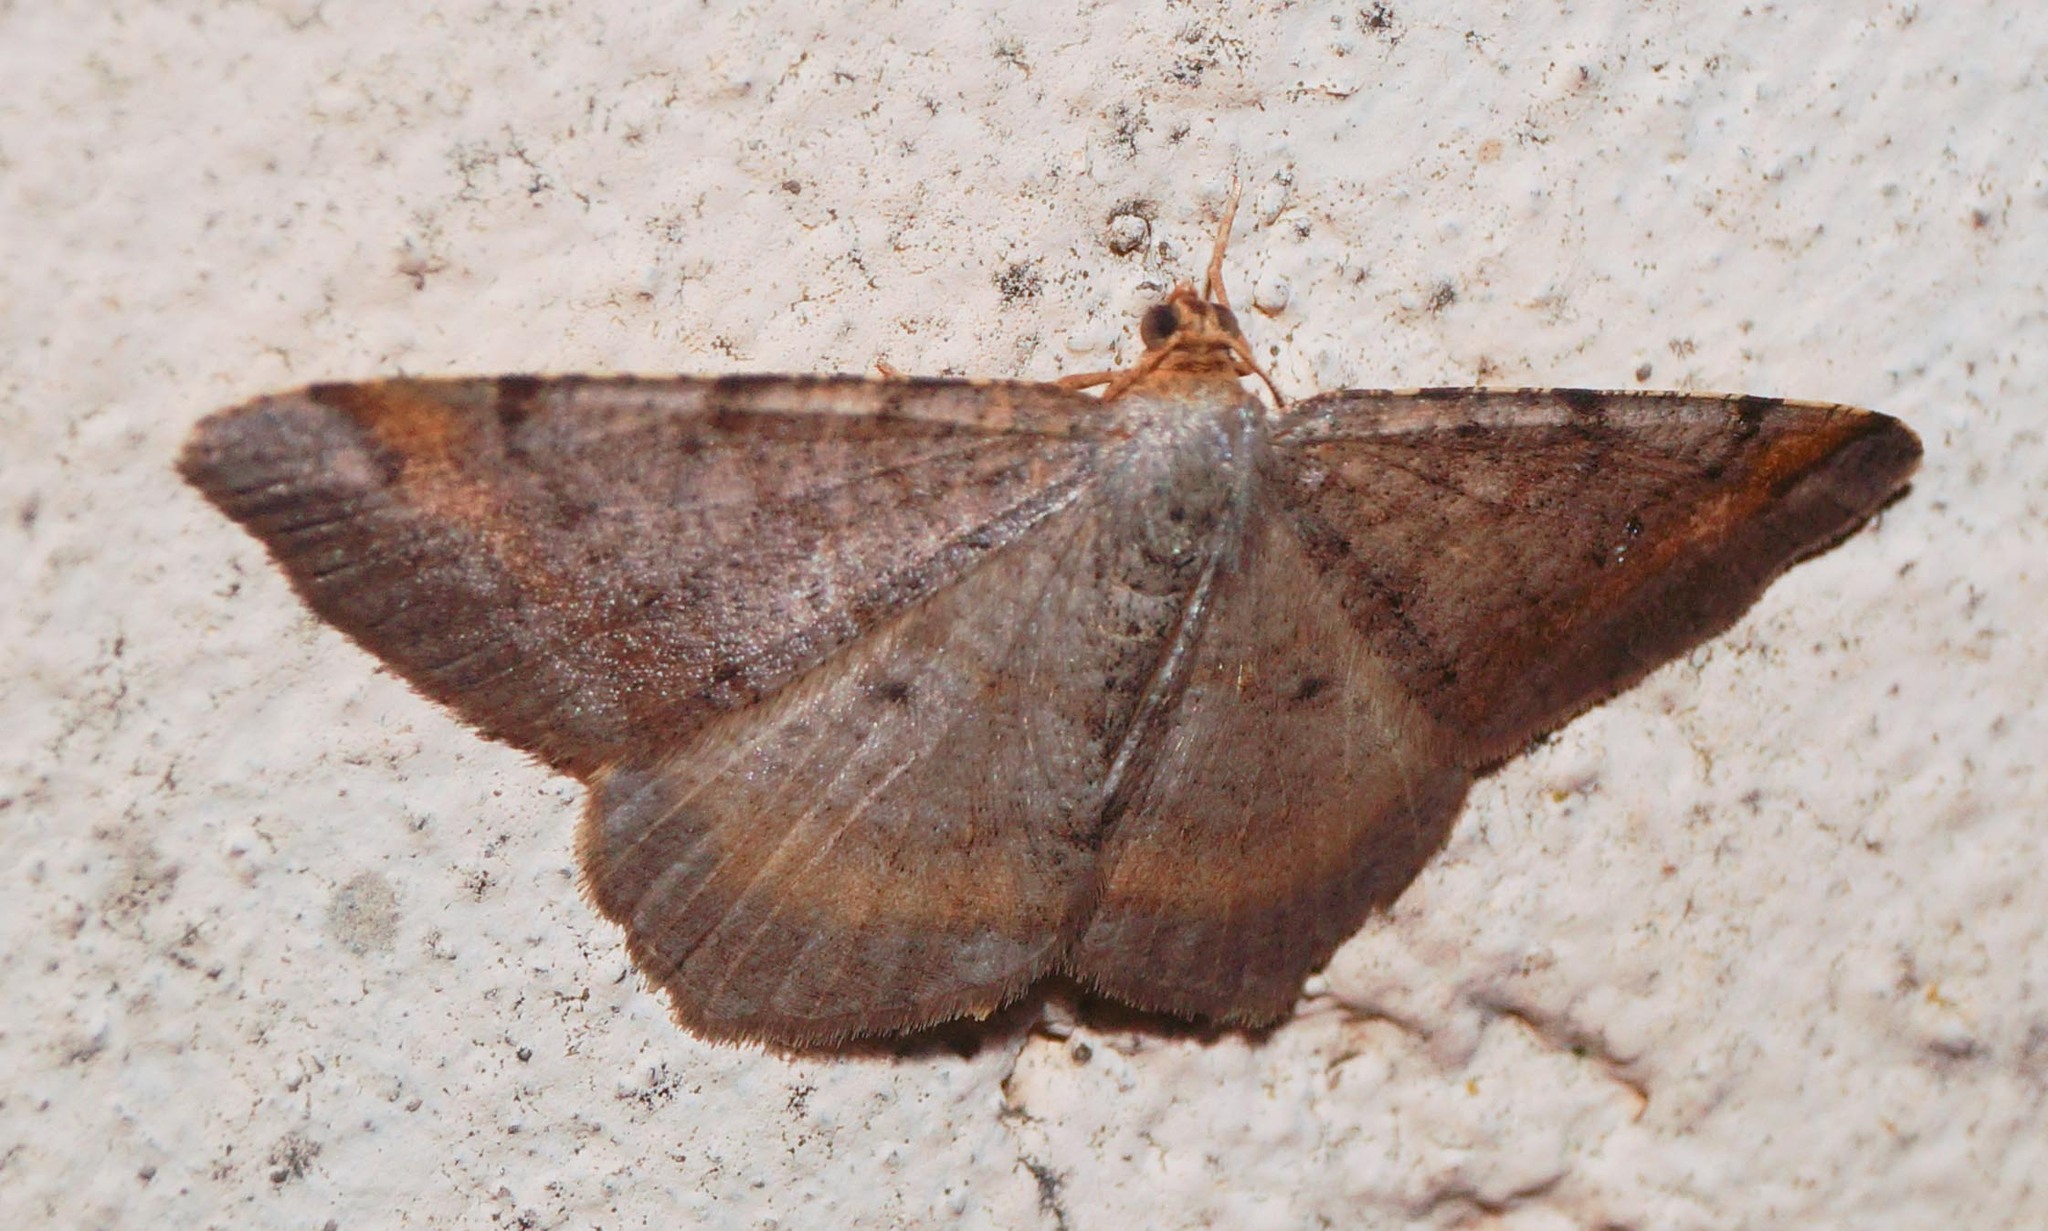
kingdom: Animalia
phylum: Arthropoda
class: Insecta
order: Lepidoptera
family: Geometridae
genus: Macaria
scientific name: Macaria liturata
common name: Tawny-barred angle
